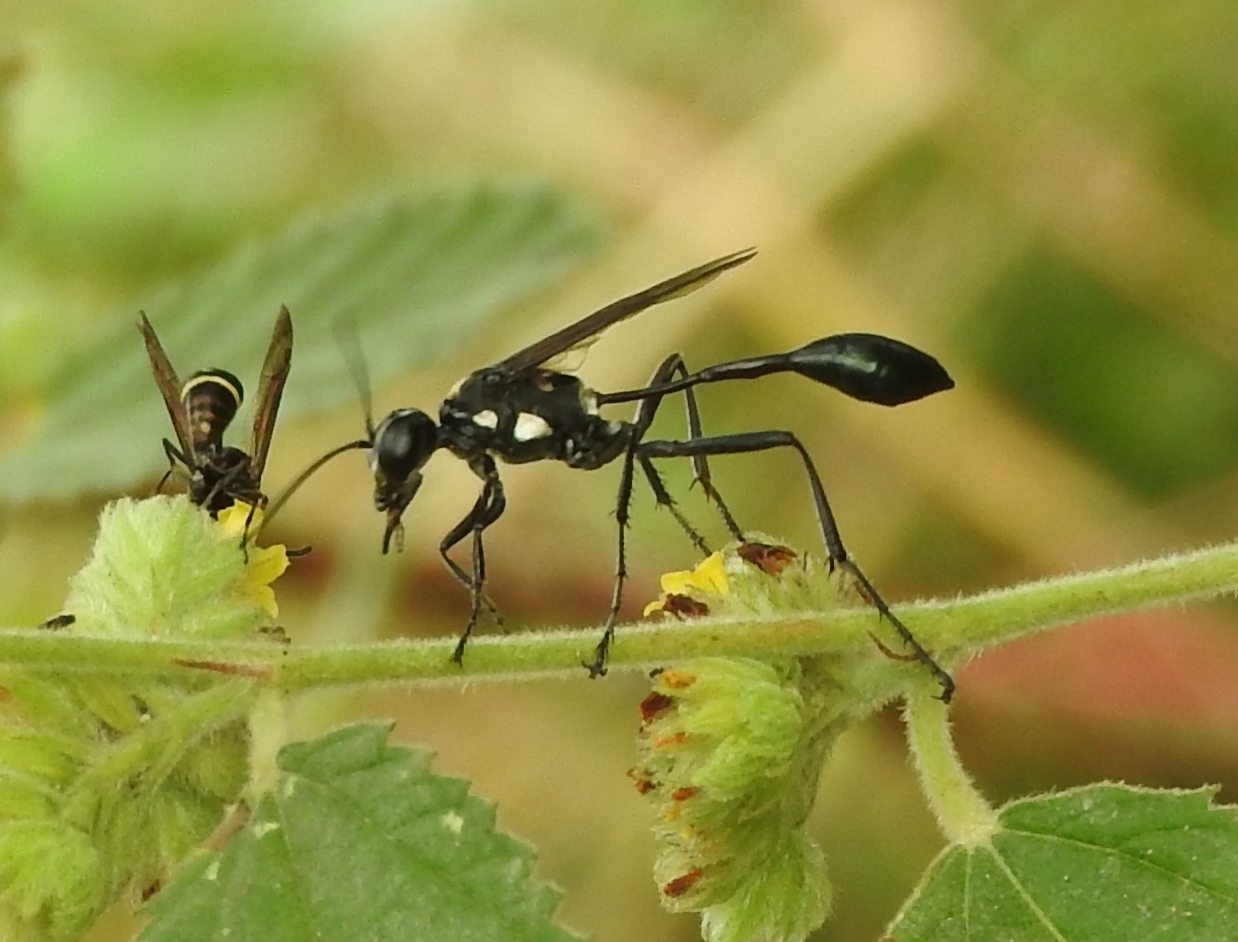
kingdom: Animalia
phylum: Arthropoda
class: Insecta
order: Hymenoptera
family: Sphecidae
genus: Eremnophila
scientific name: Eremnophila aureonotata
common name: Gold-marked thread-waisted wasp
